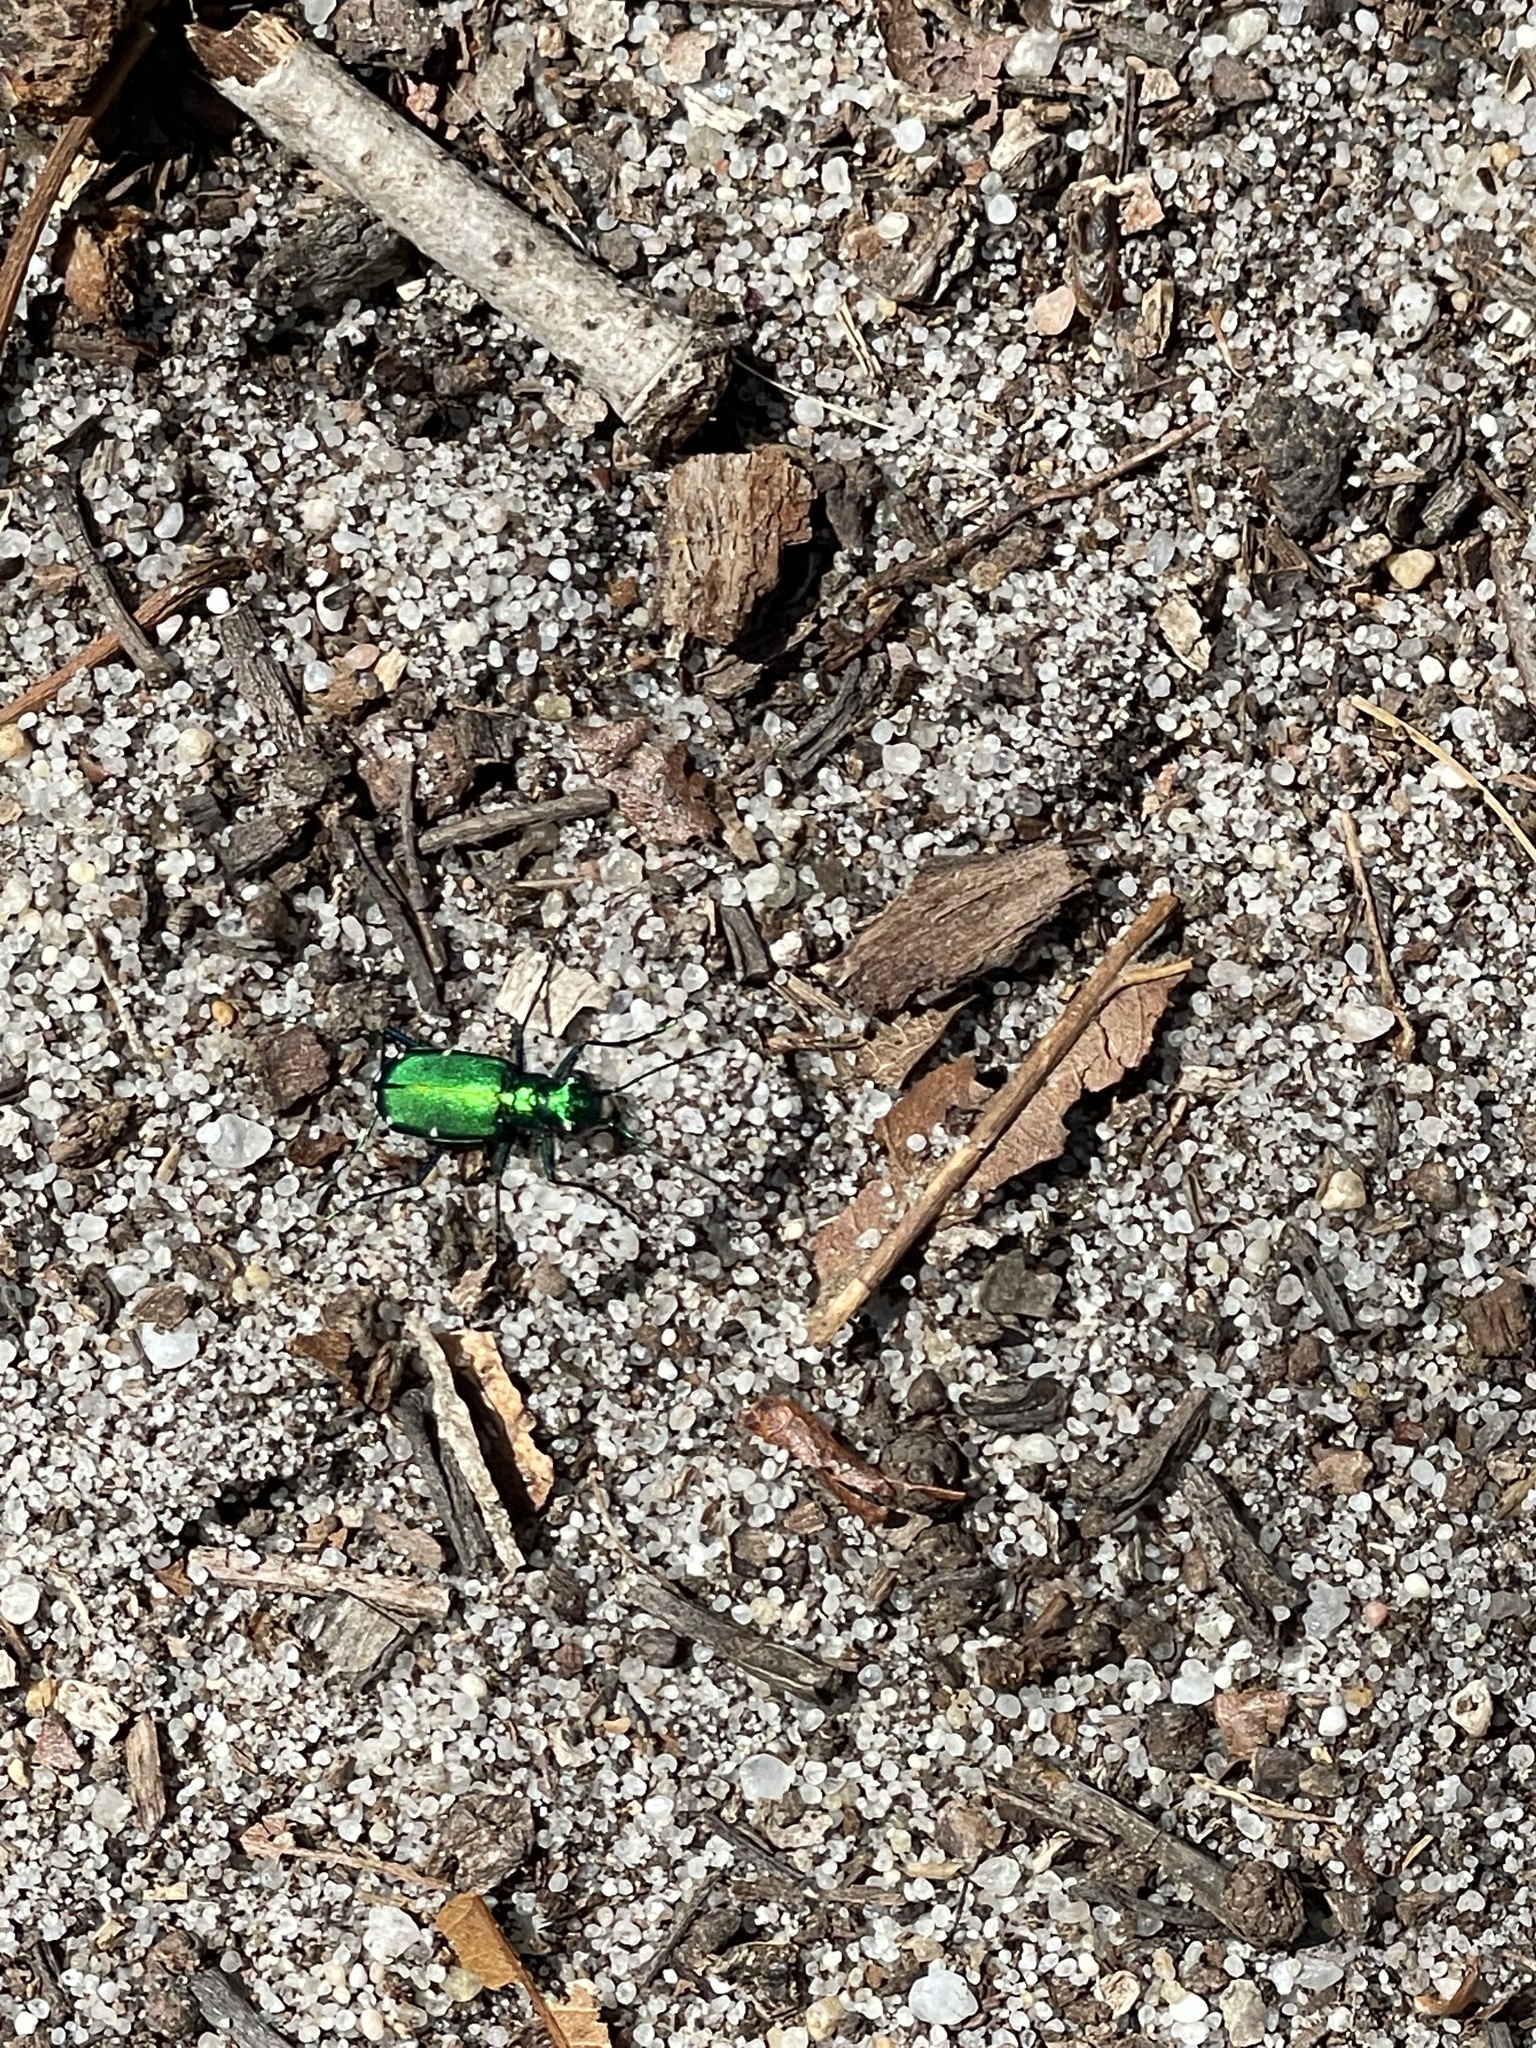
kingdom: Animalia
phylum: Arthropoda
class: Insecta
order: Coleoptera
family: Carabidae
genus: Cicindela
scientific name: Cicindela sexguttata
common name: Six-spotted tiger beetle
